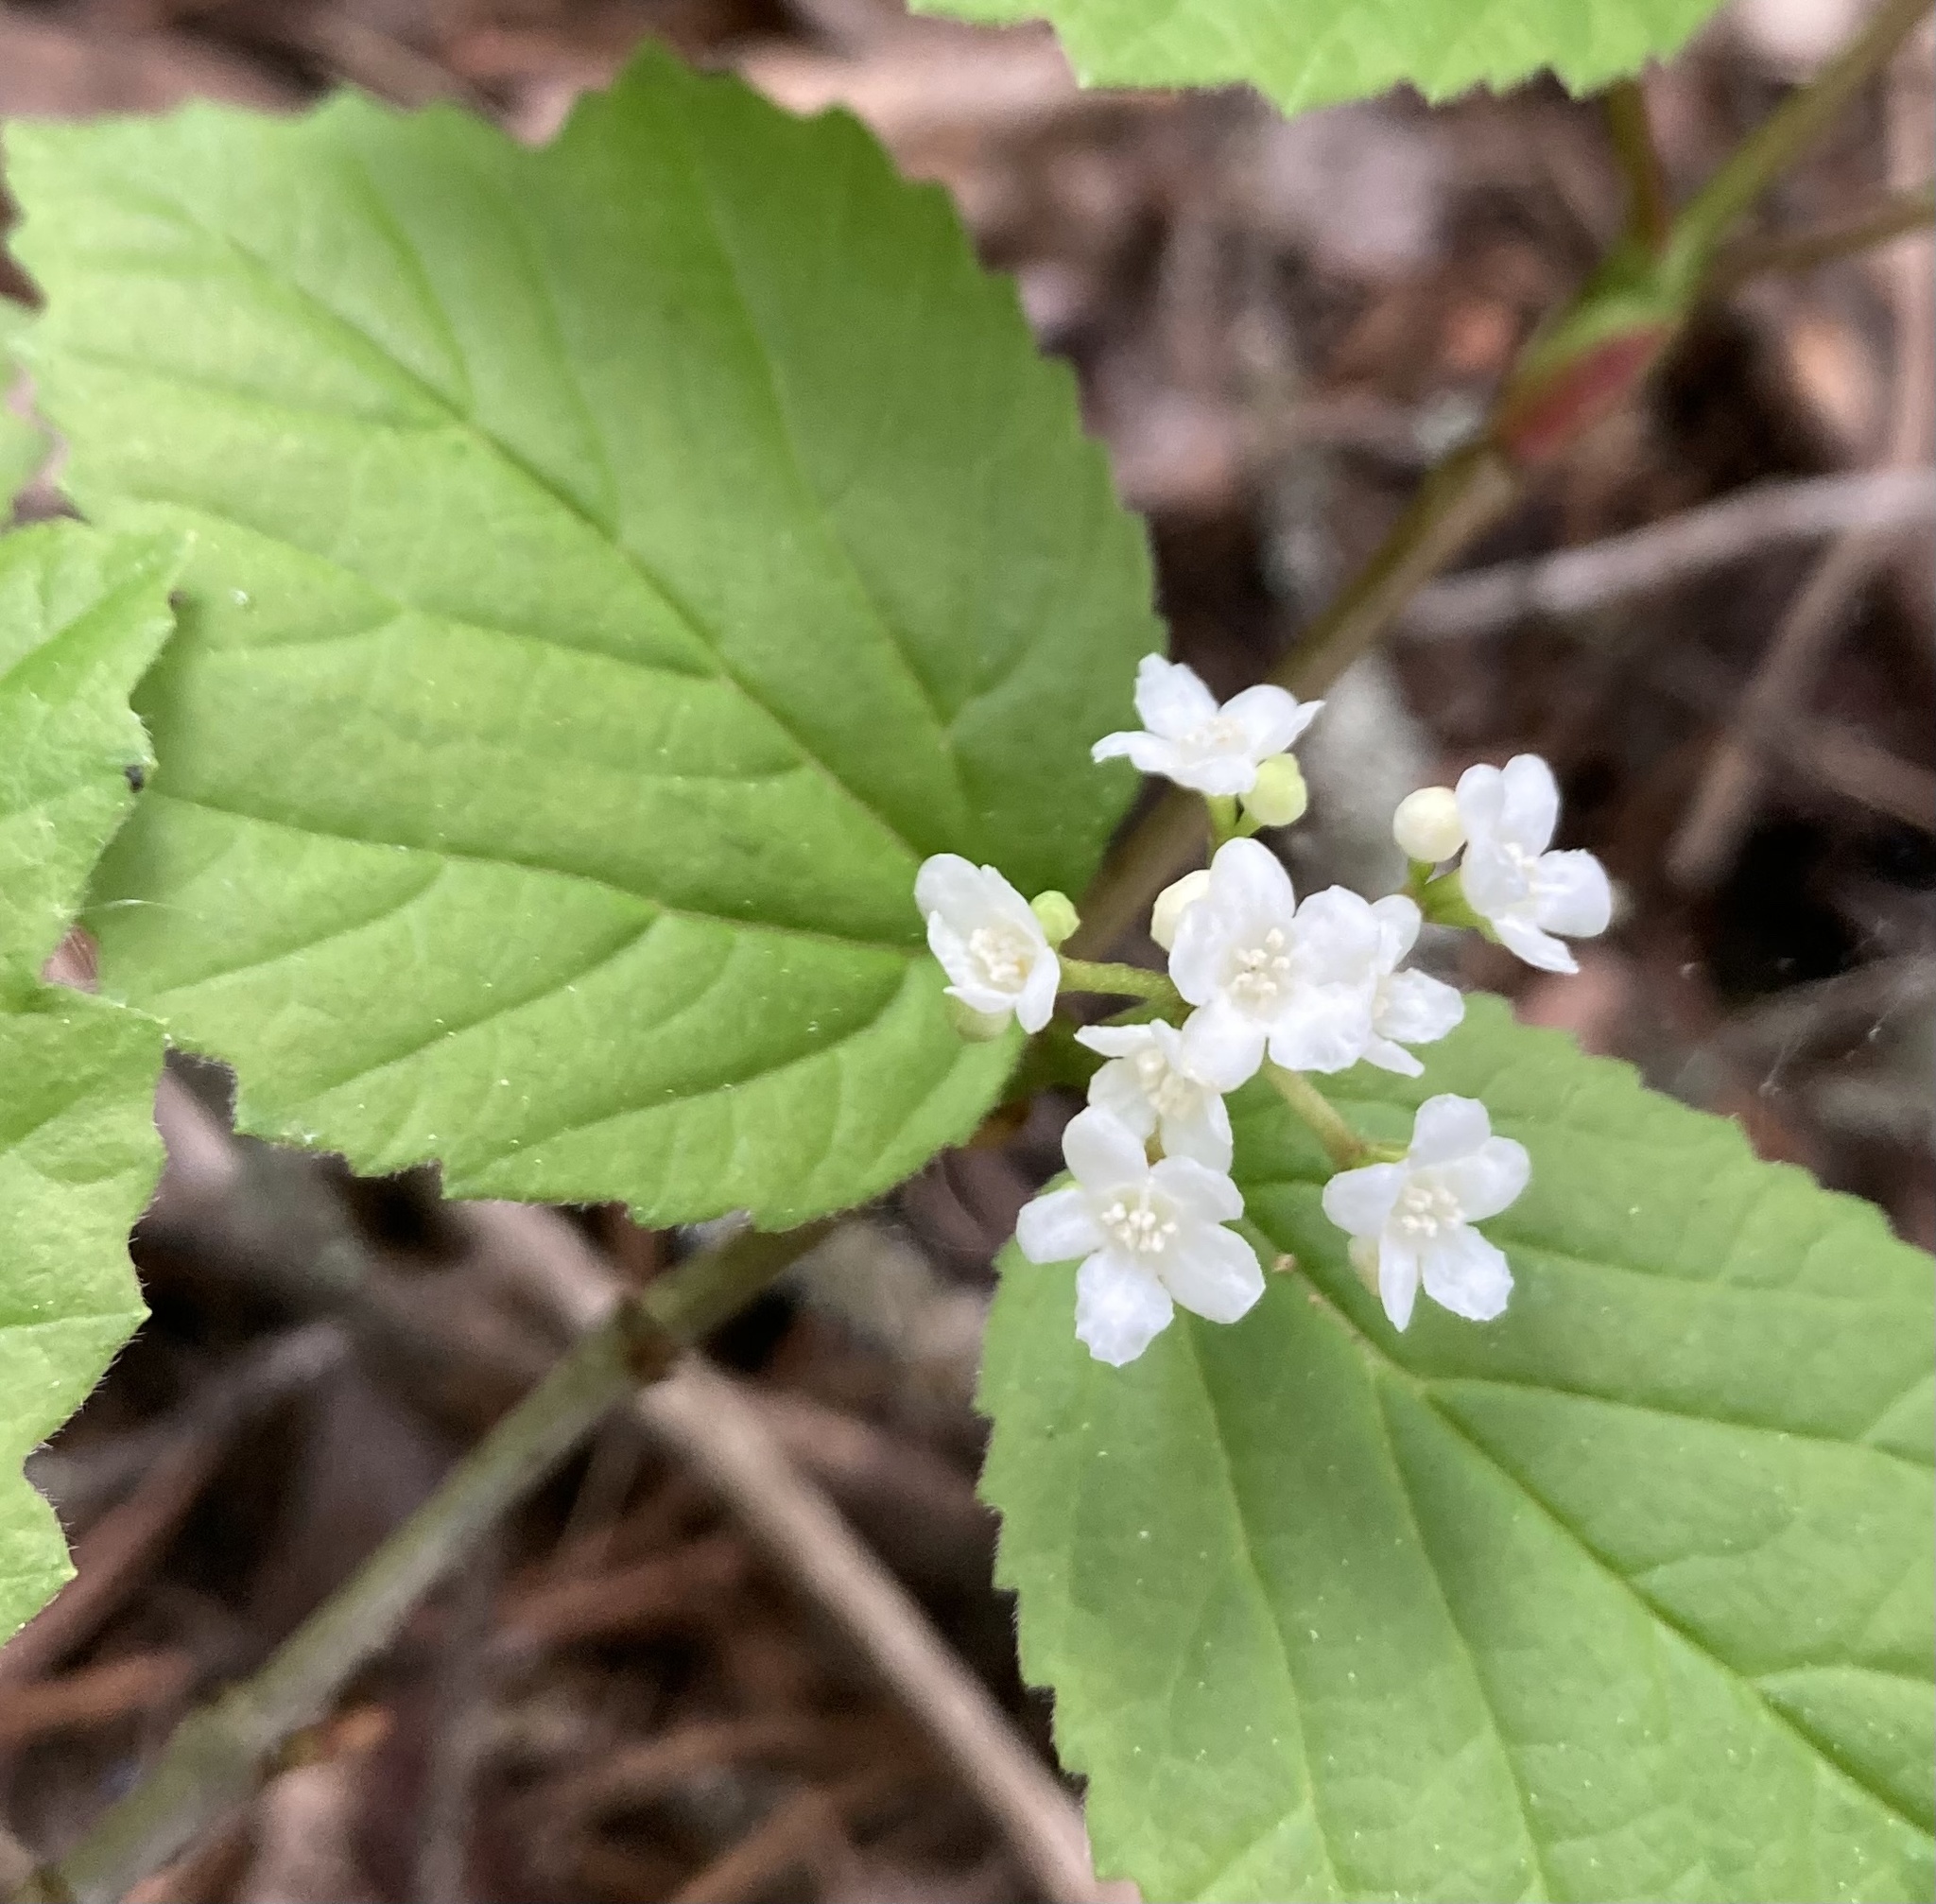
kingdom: Plantae
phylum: Tracheophyta
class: Magnoliopsida
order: Dipsacales
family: Viburnaceae
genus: Viburnum
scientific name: Viburnum edule
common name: Mooseberry
